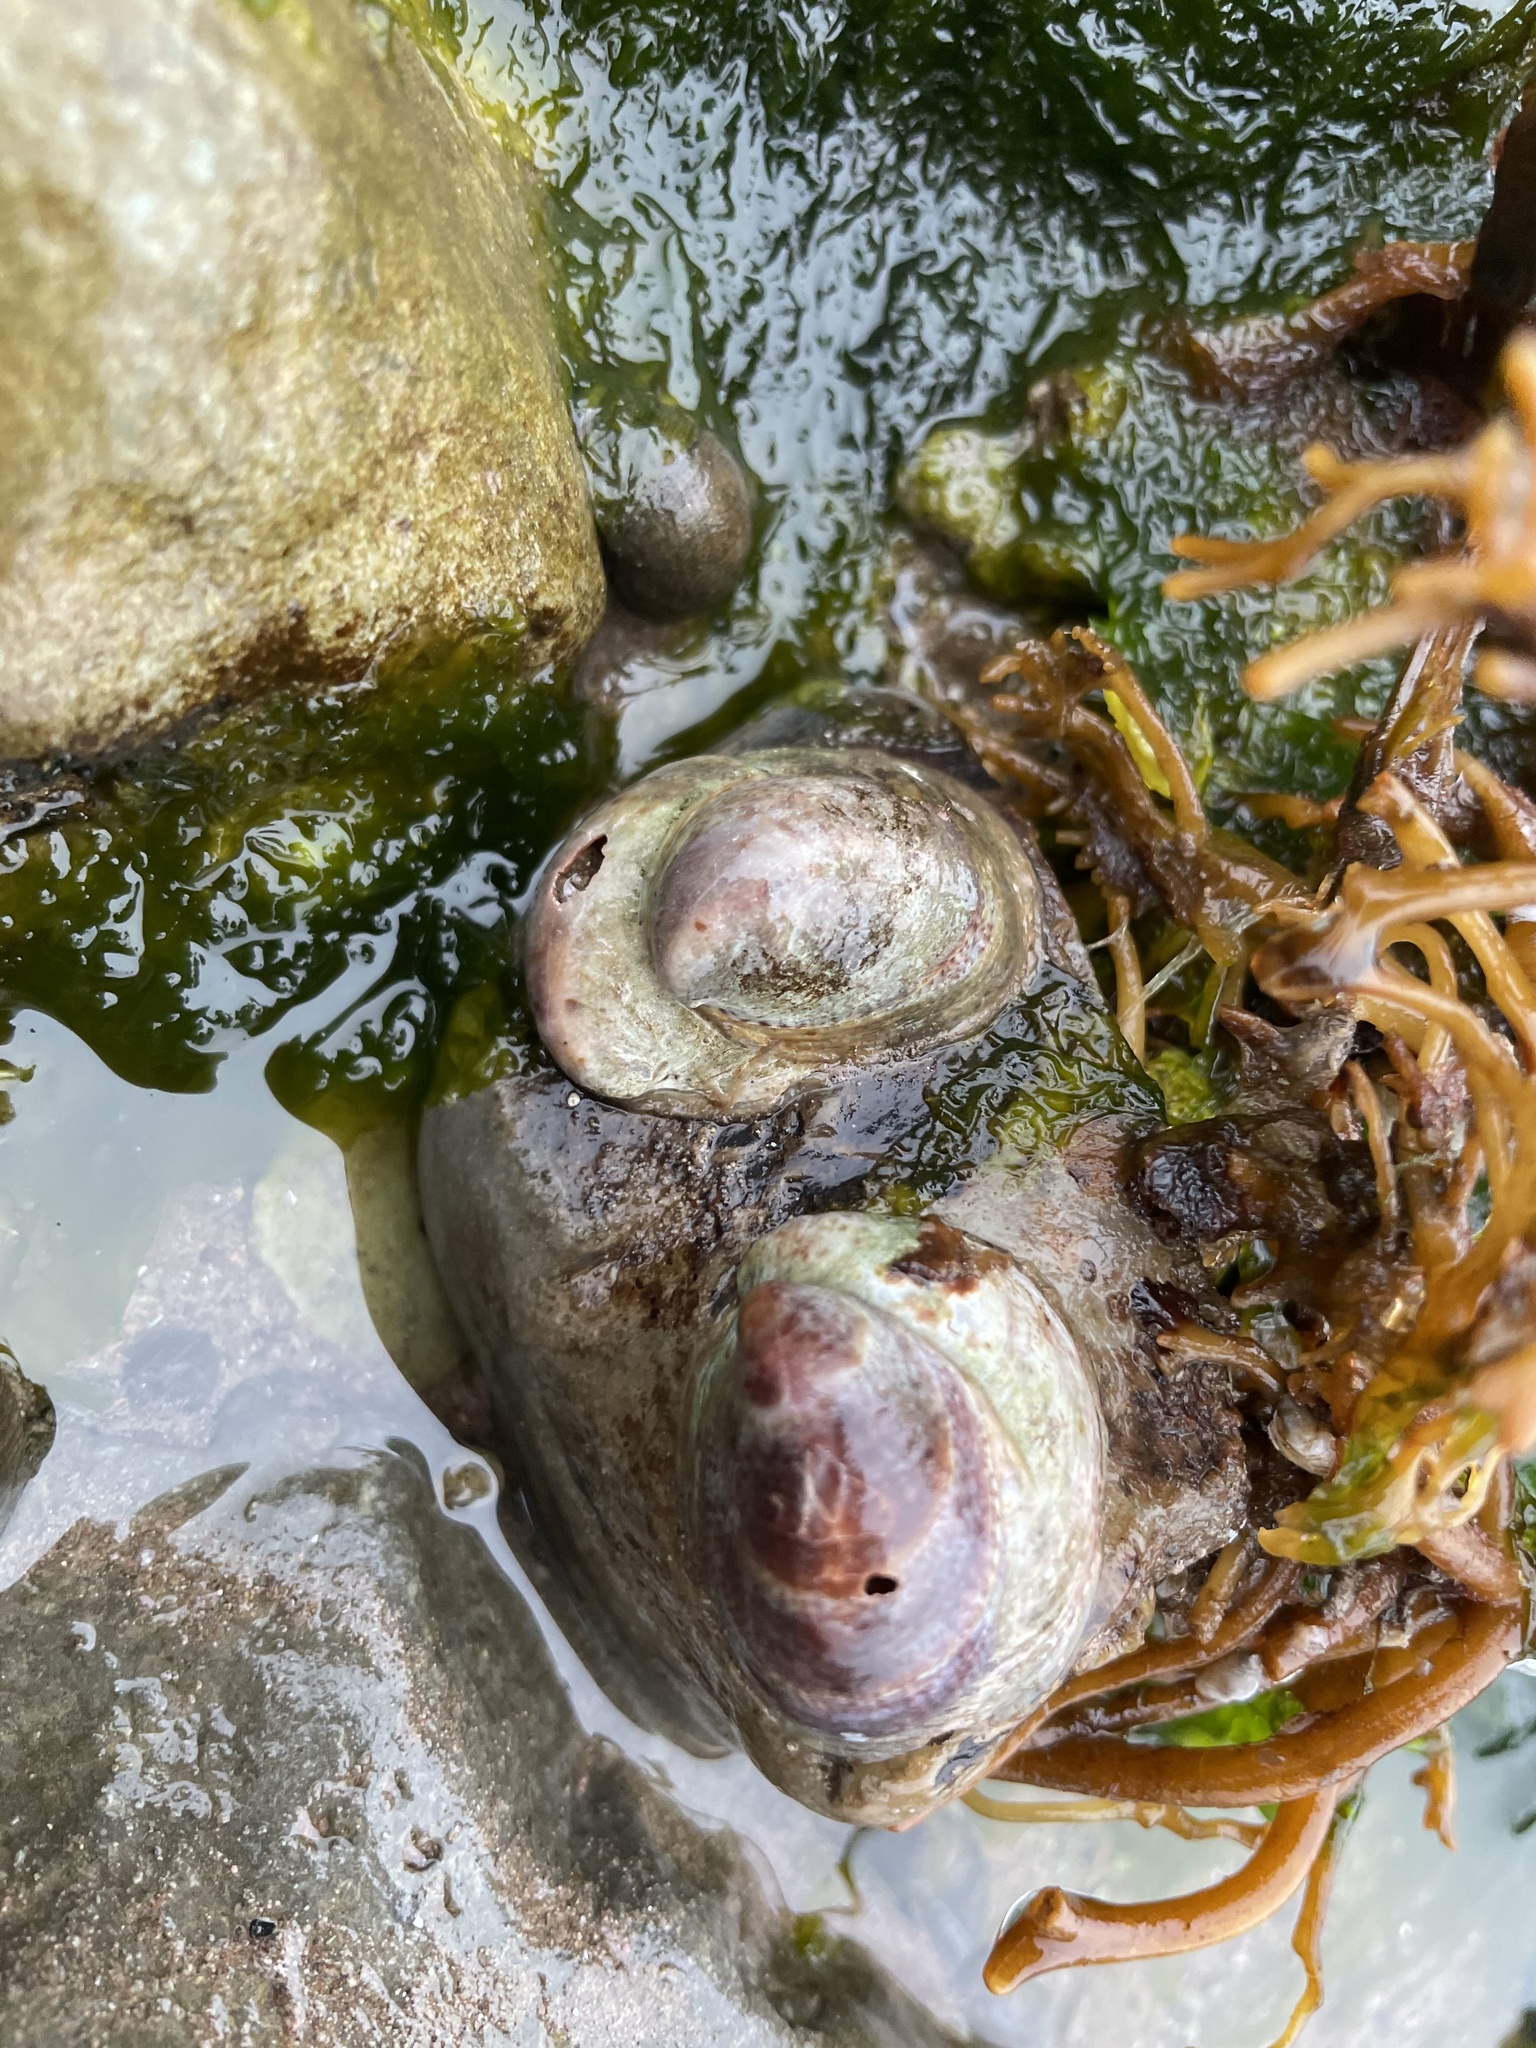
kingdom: Animalia
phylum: Mollusca
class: Gastropoda
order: Littorinimorpha
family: Calyptraeidae
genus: Crepidula
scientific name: Crepidula fornicata
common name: Slipper limpet
